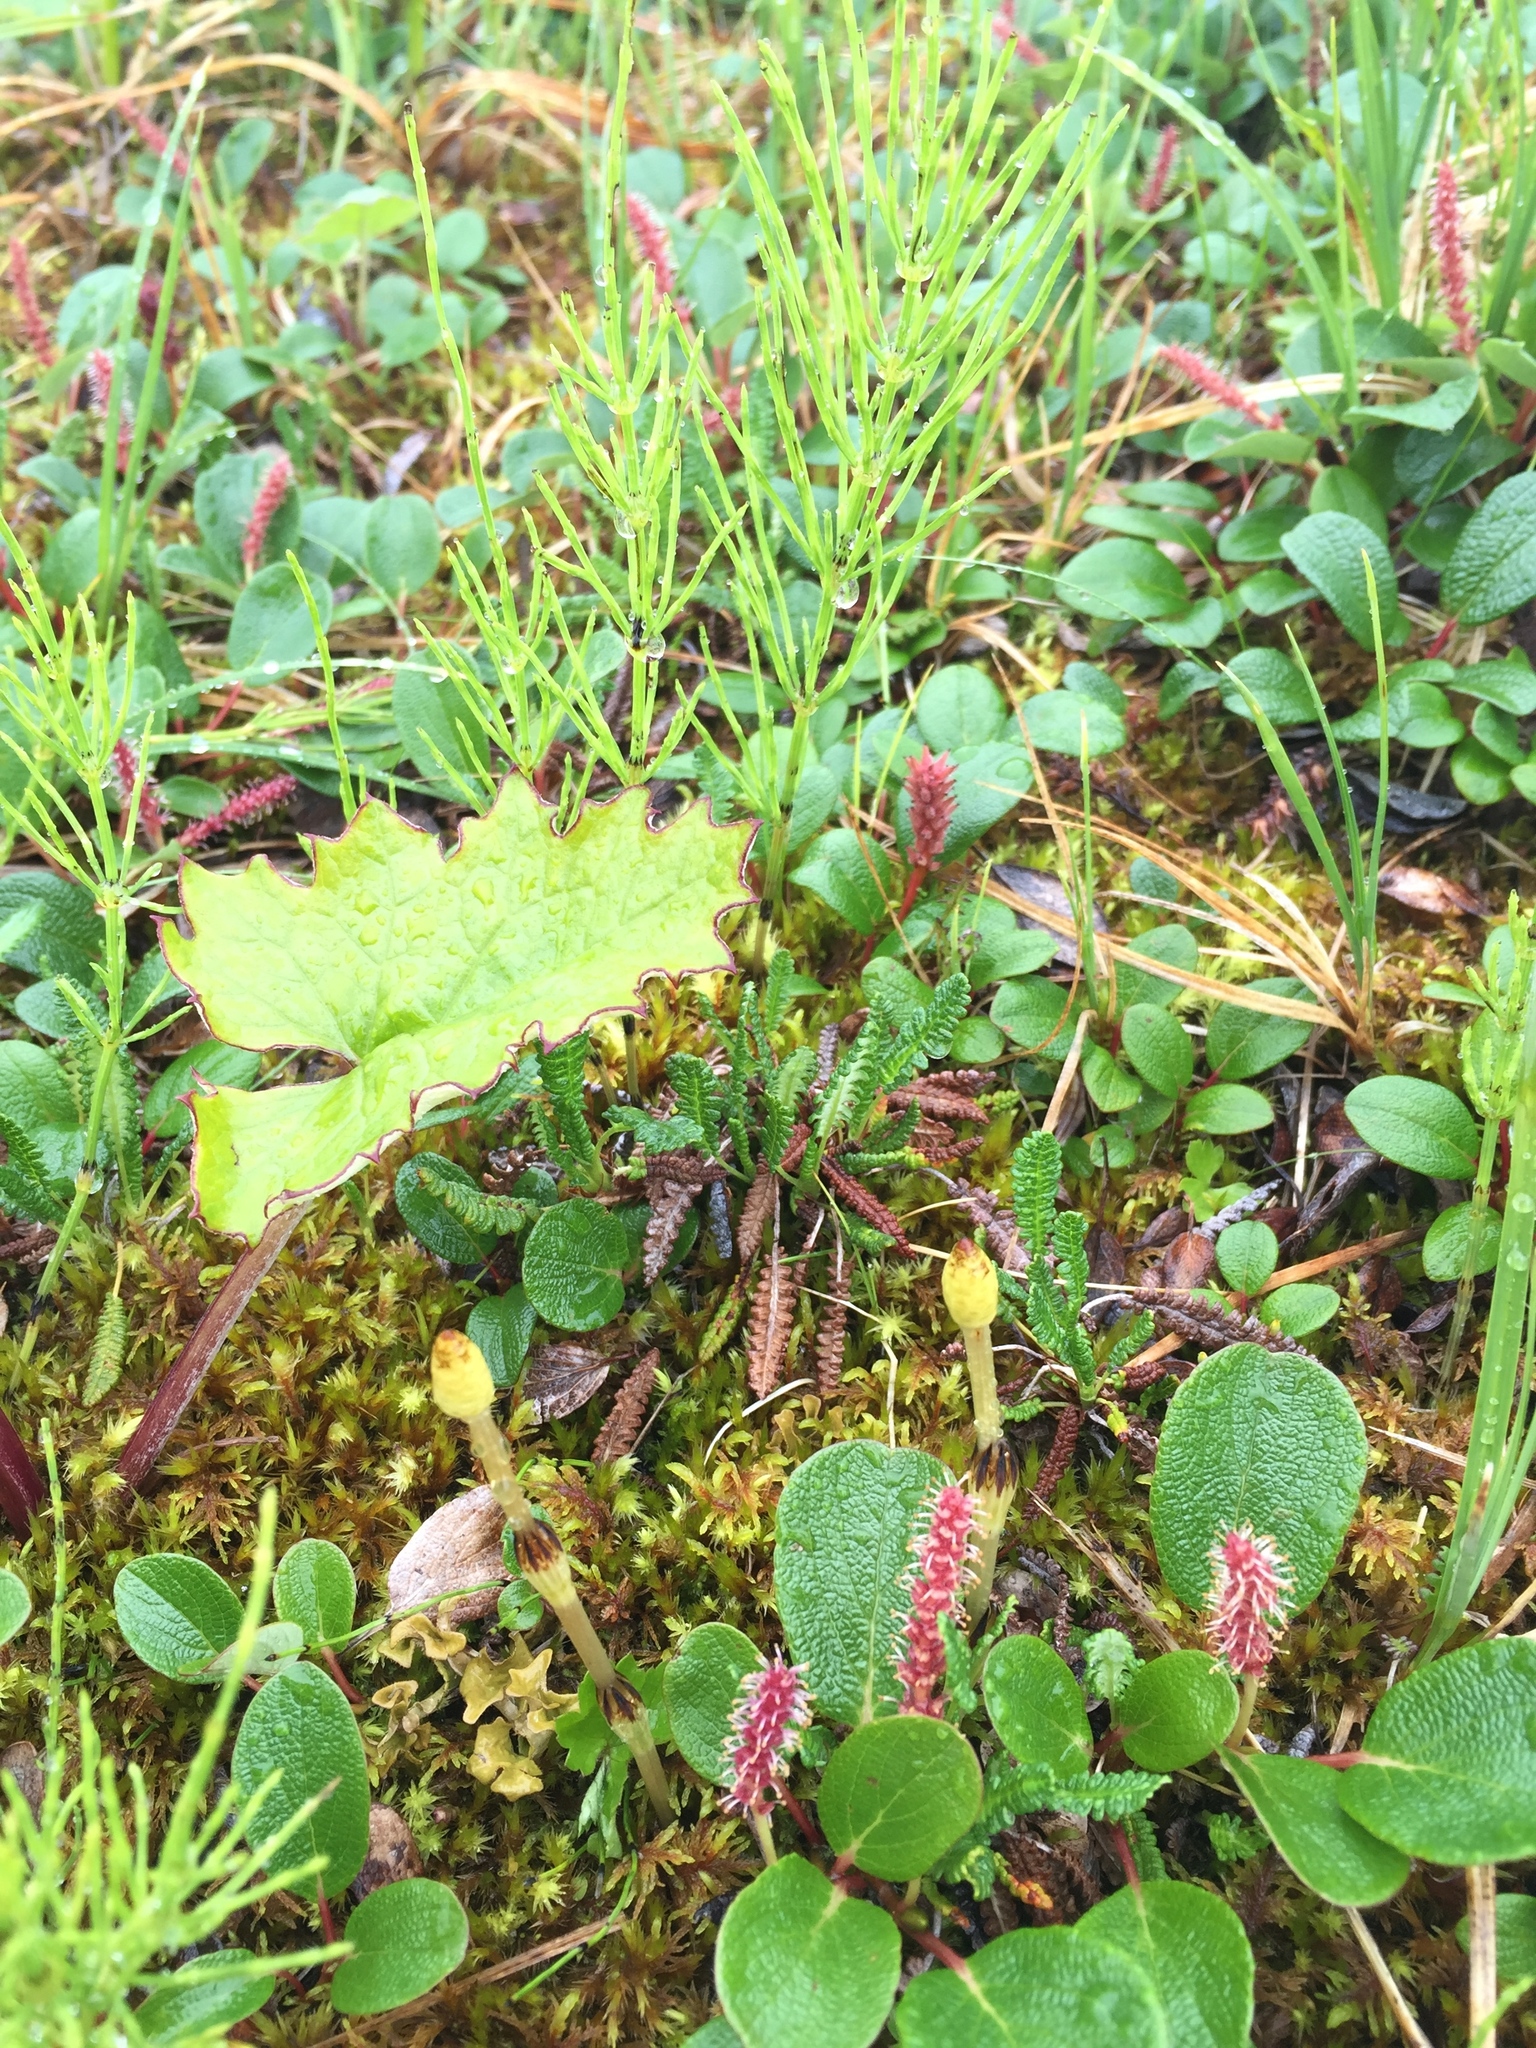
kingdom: Plantae
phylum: Tracheophyta
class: Polypodiopsida
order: Equisetales
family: Equisetaceae
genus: Equisetum
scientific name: Equisetum arvense
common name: Field horsetail
